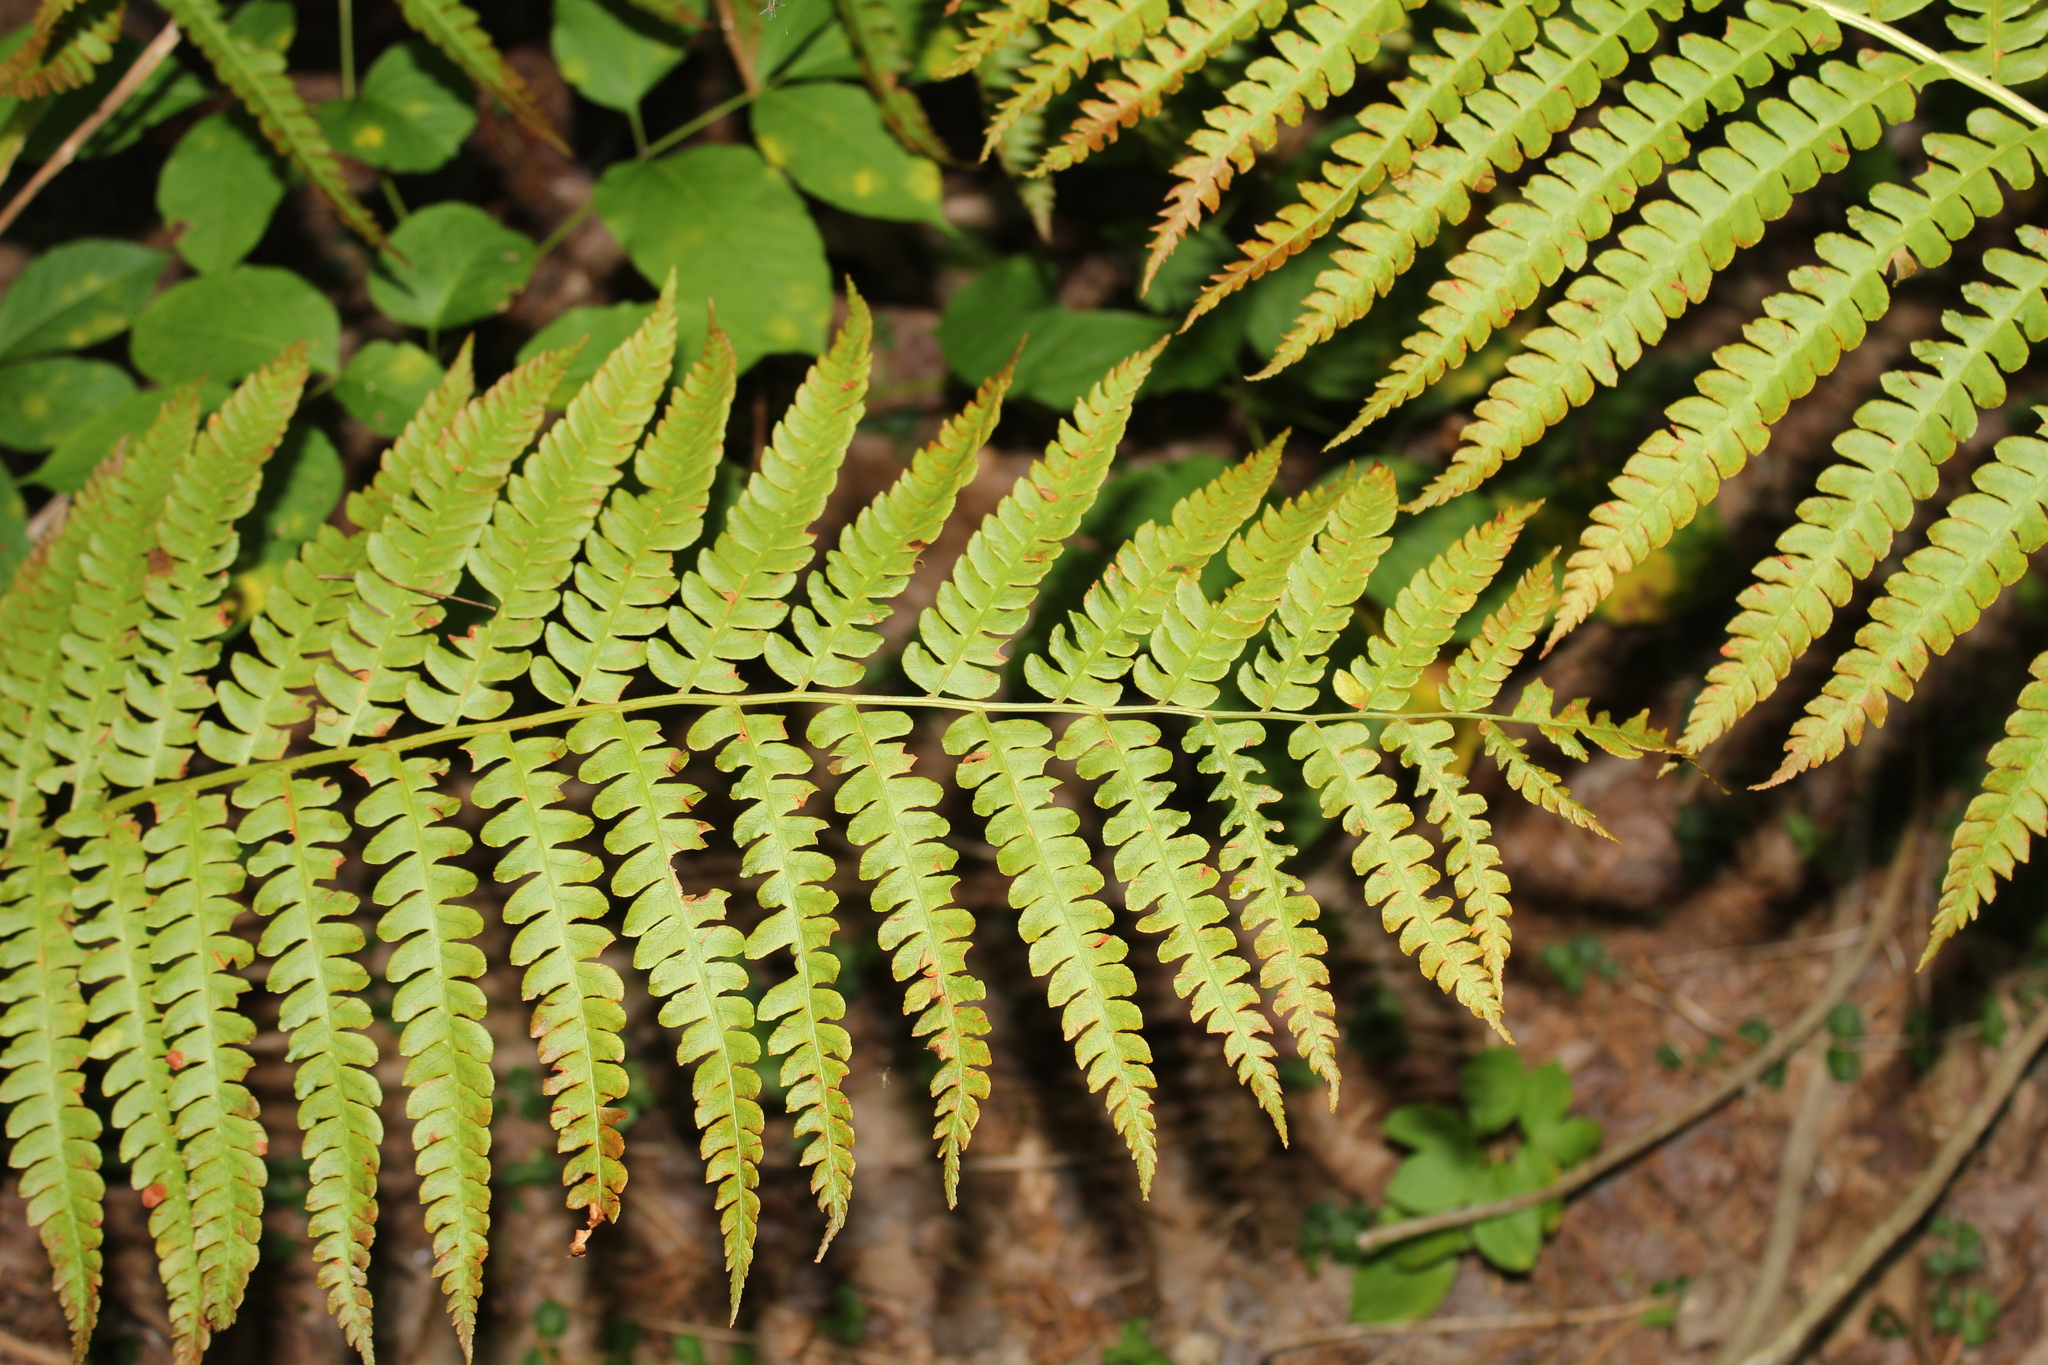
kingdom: Plantae
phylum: Tracheophyta
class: Polypodiopsida
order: Osmundales
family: Osmundaceae
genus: Osmundastrum
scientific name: Osmundastrum cinnamomeum
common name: Cinnamon fern
